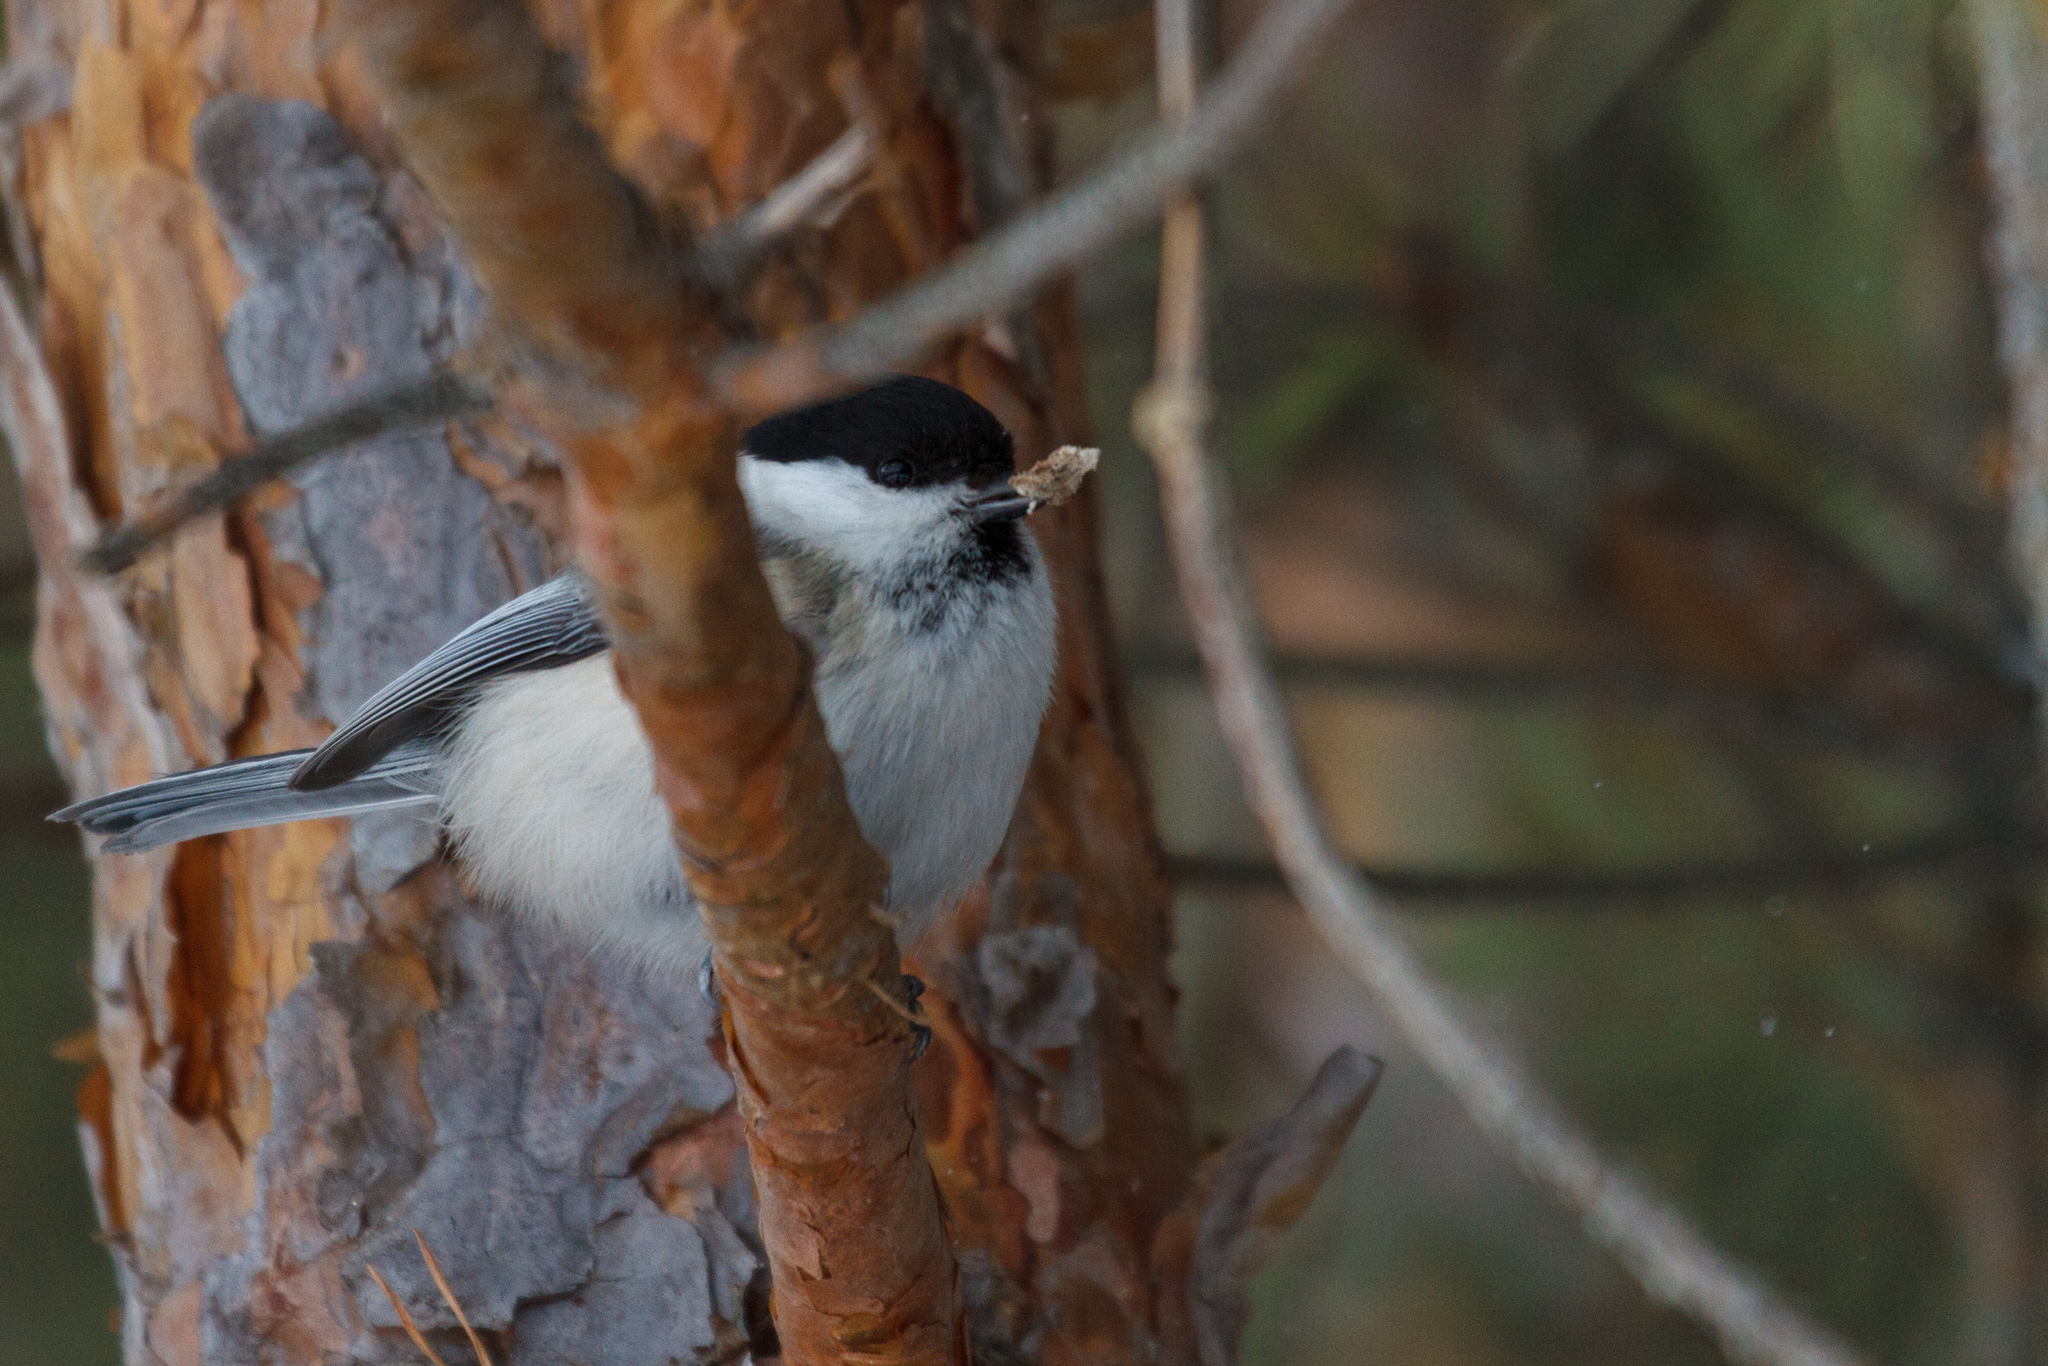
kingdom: Animalia
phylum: Chordata
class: Aves
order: Passeriformes
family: Paridae
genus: Poecile
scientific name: Poecile montanus
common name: Willow tit
